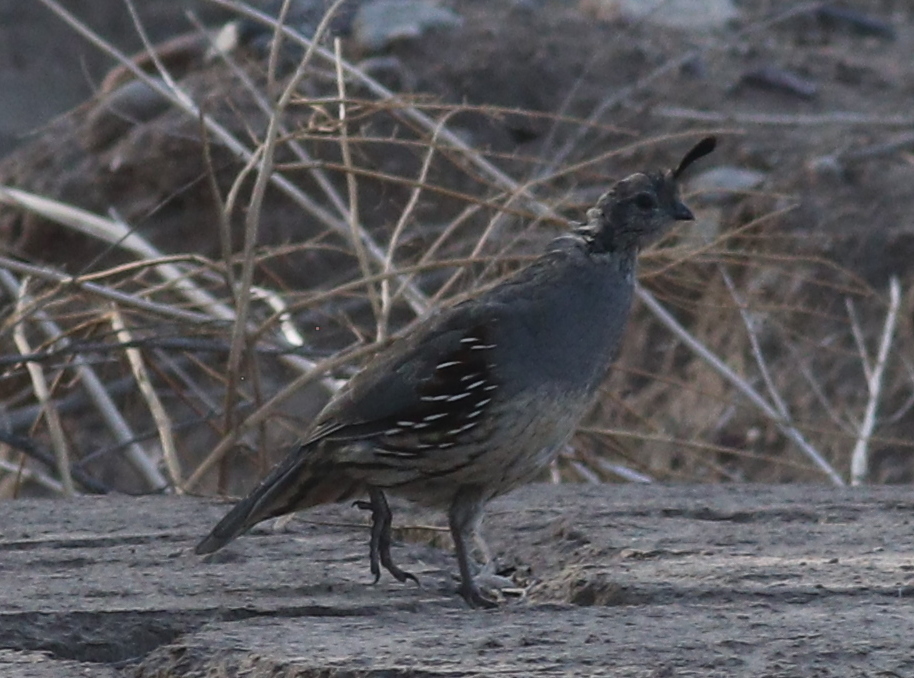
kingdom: Animalia
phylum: Chordata
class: Aves
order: Galliformes
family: Odontophoridae
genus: Callipepla
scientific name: Callipepla gambelii
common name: Gambel's quail
